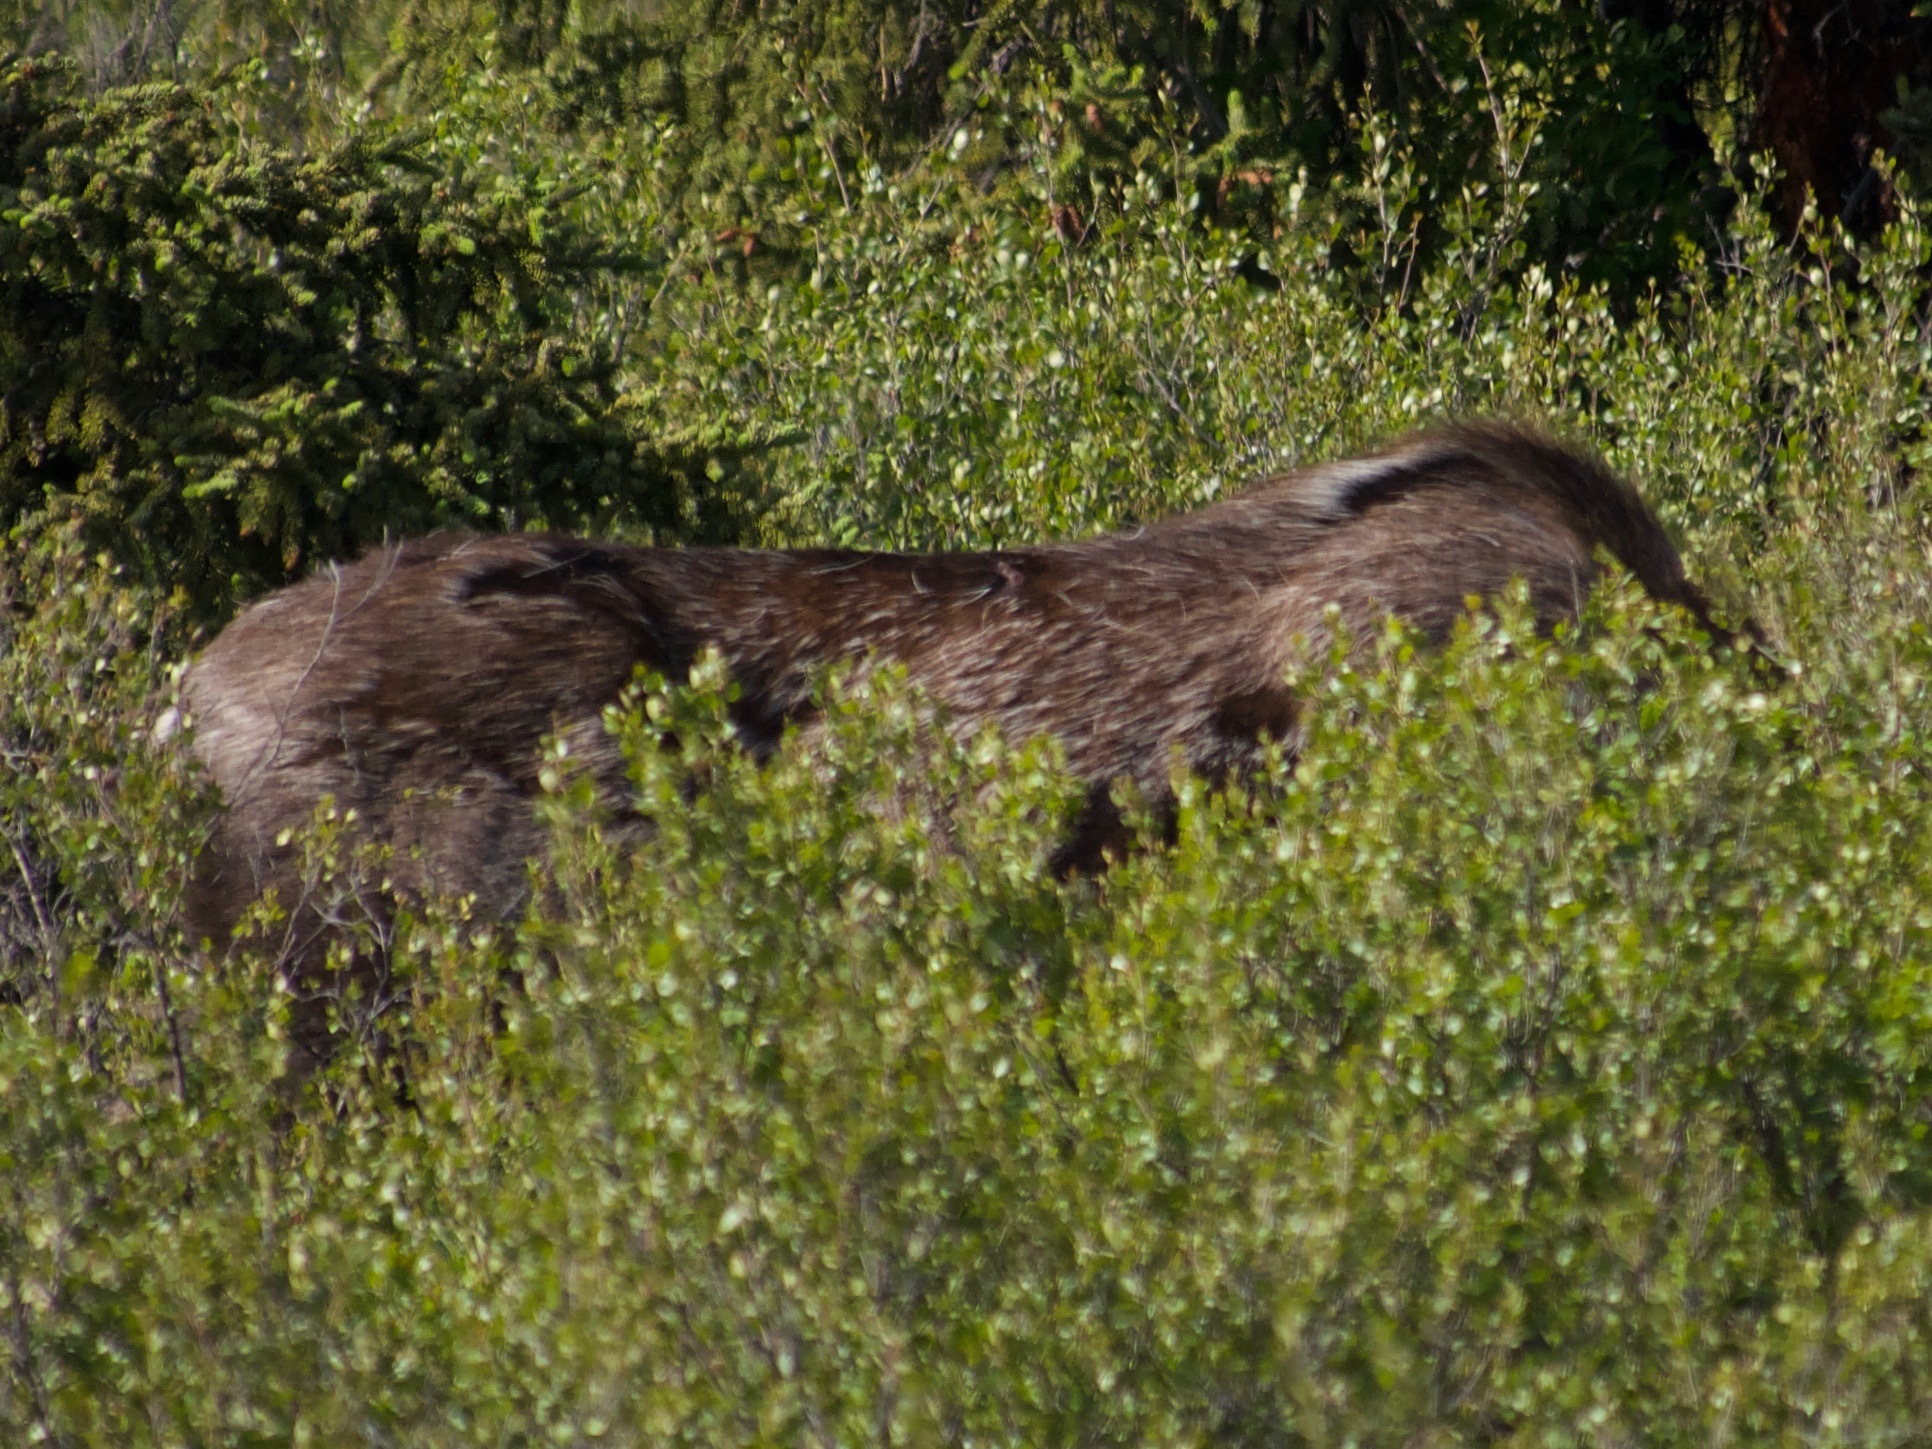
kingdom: Animalia
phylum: Chordata
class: Mammalia
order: Artiodactyla
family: Cervidae
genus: Alces
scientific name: Alces alces
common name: Moose
